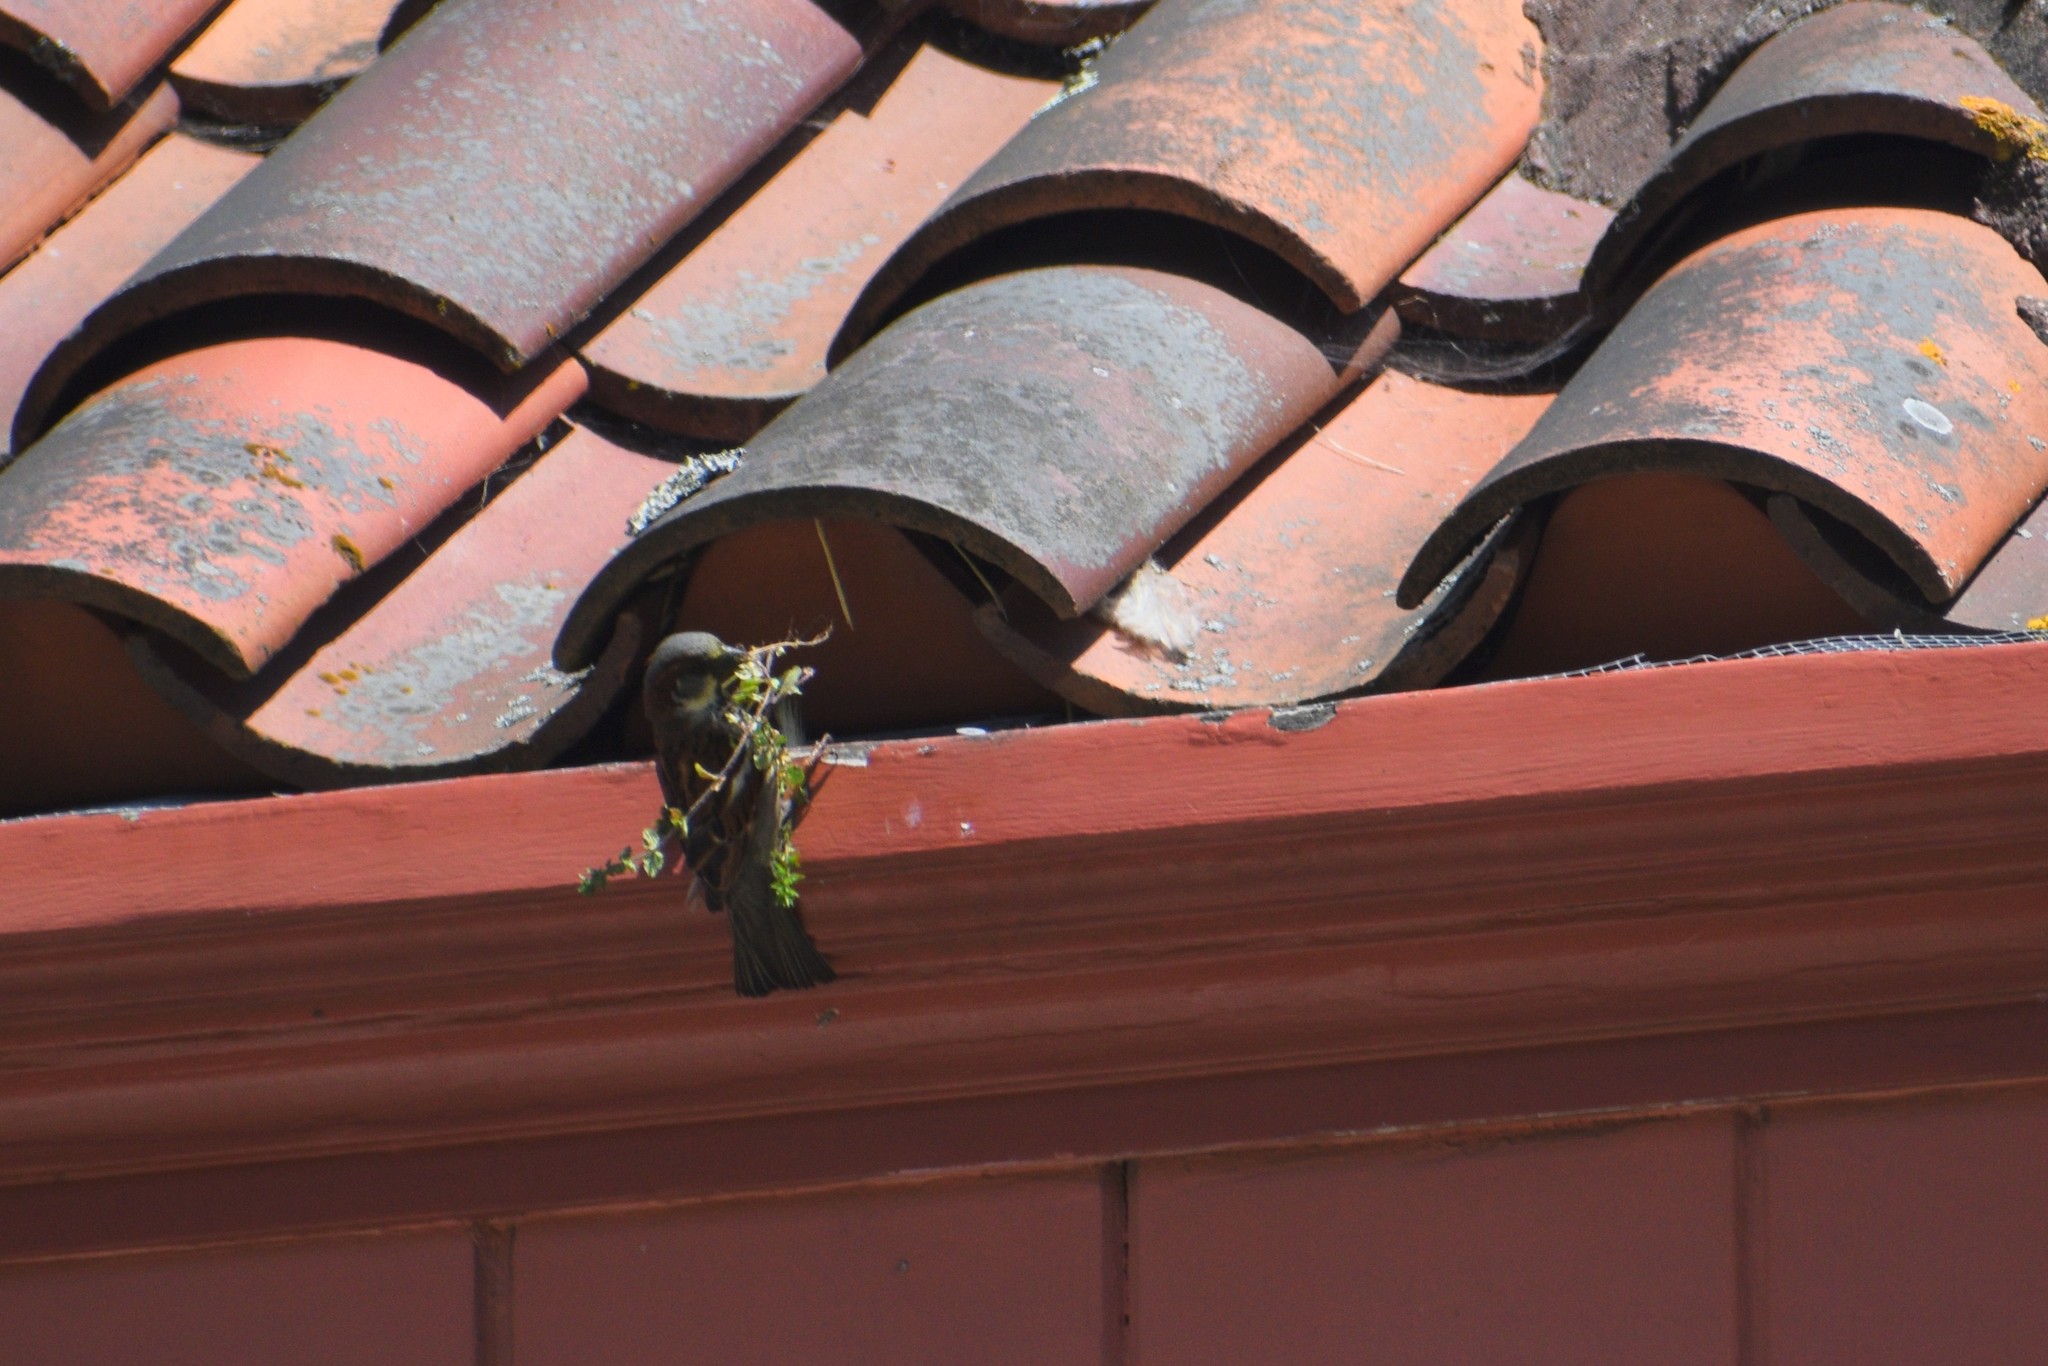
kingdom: Animalia
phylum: Chordata
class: Aves
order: Passeriformes
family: Passeridae
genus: Passer
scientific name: Passer domesticus
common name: House sparrow
